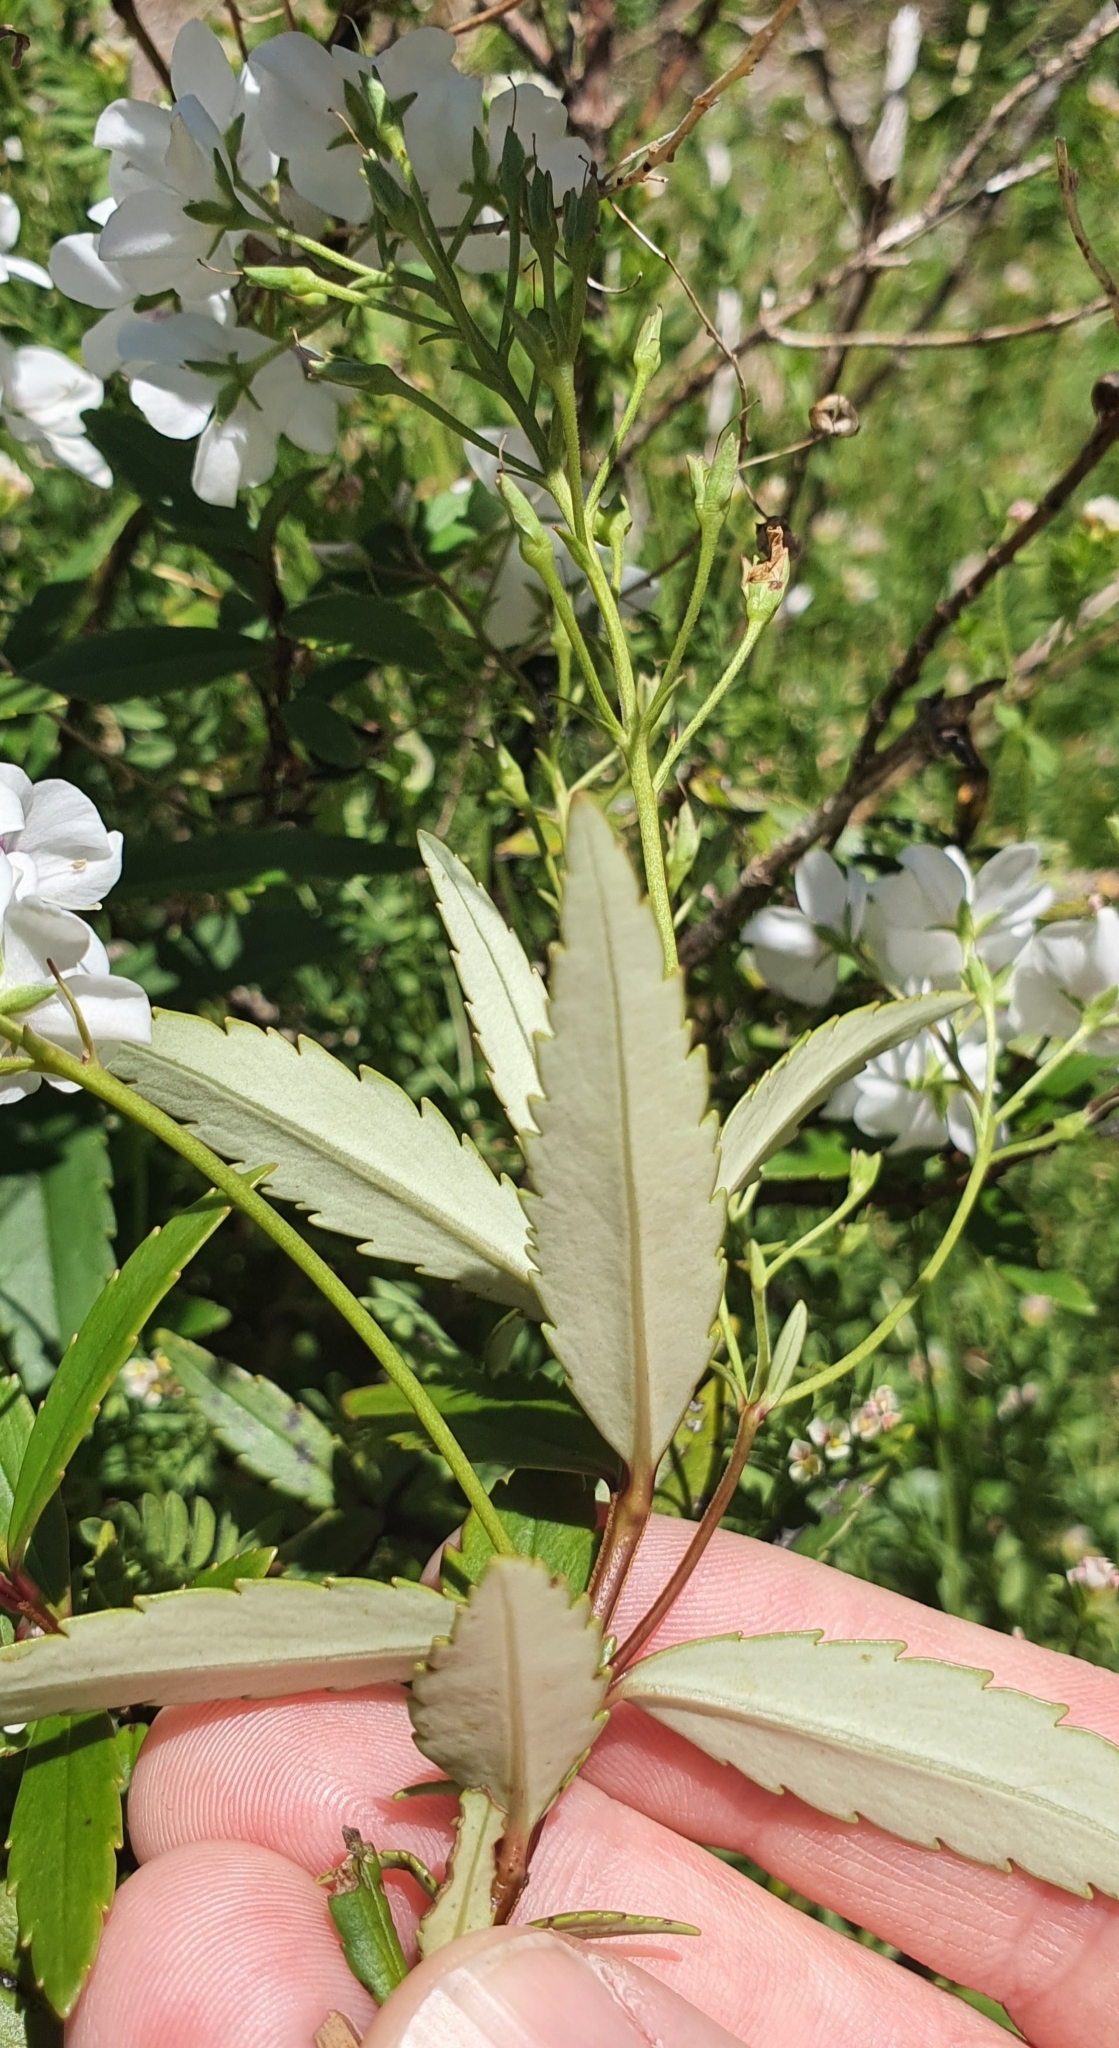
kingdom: Plantae
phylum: Tracheophyta
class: Magnoliopsida
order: Lamiales
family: Plantaginaceae
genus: Veronica
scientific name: Veronica catarractae
